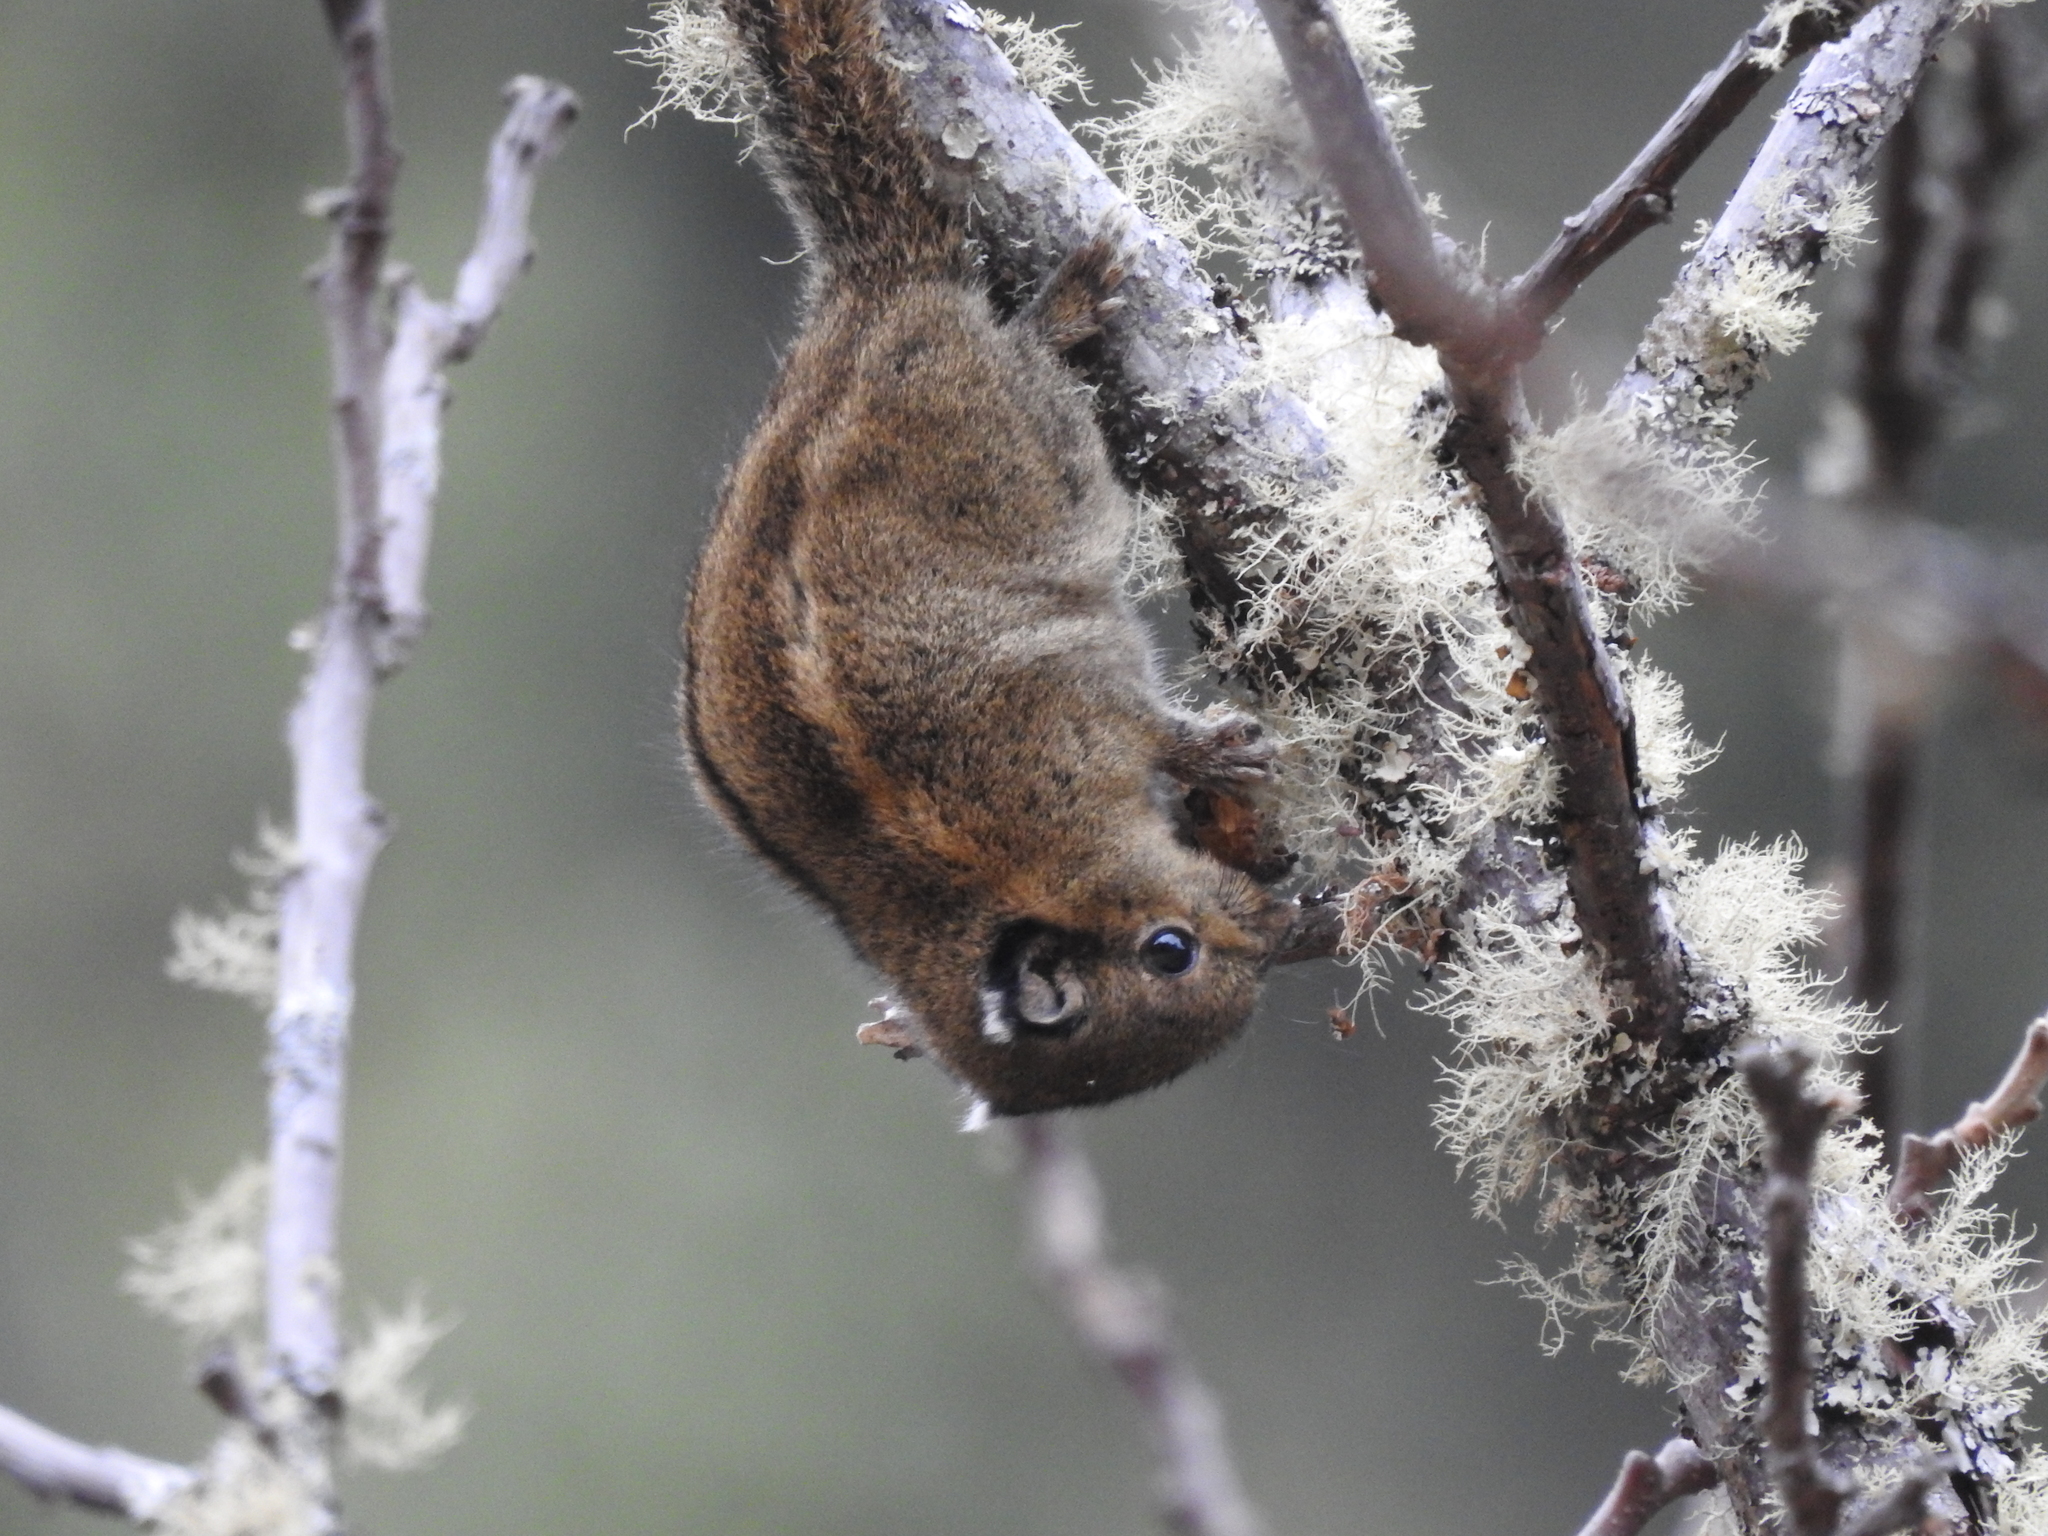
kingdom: Animalia
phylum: Chordata
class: Mammalia
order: Rodentia
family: Sciuridae
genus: Tamiops
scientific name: Tamiops mcclellandii
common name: Himalayan striped squirrel
